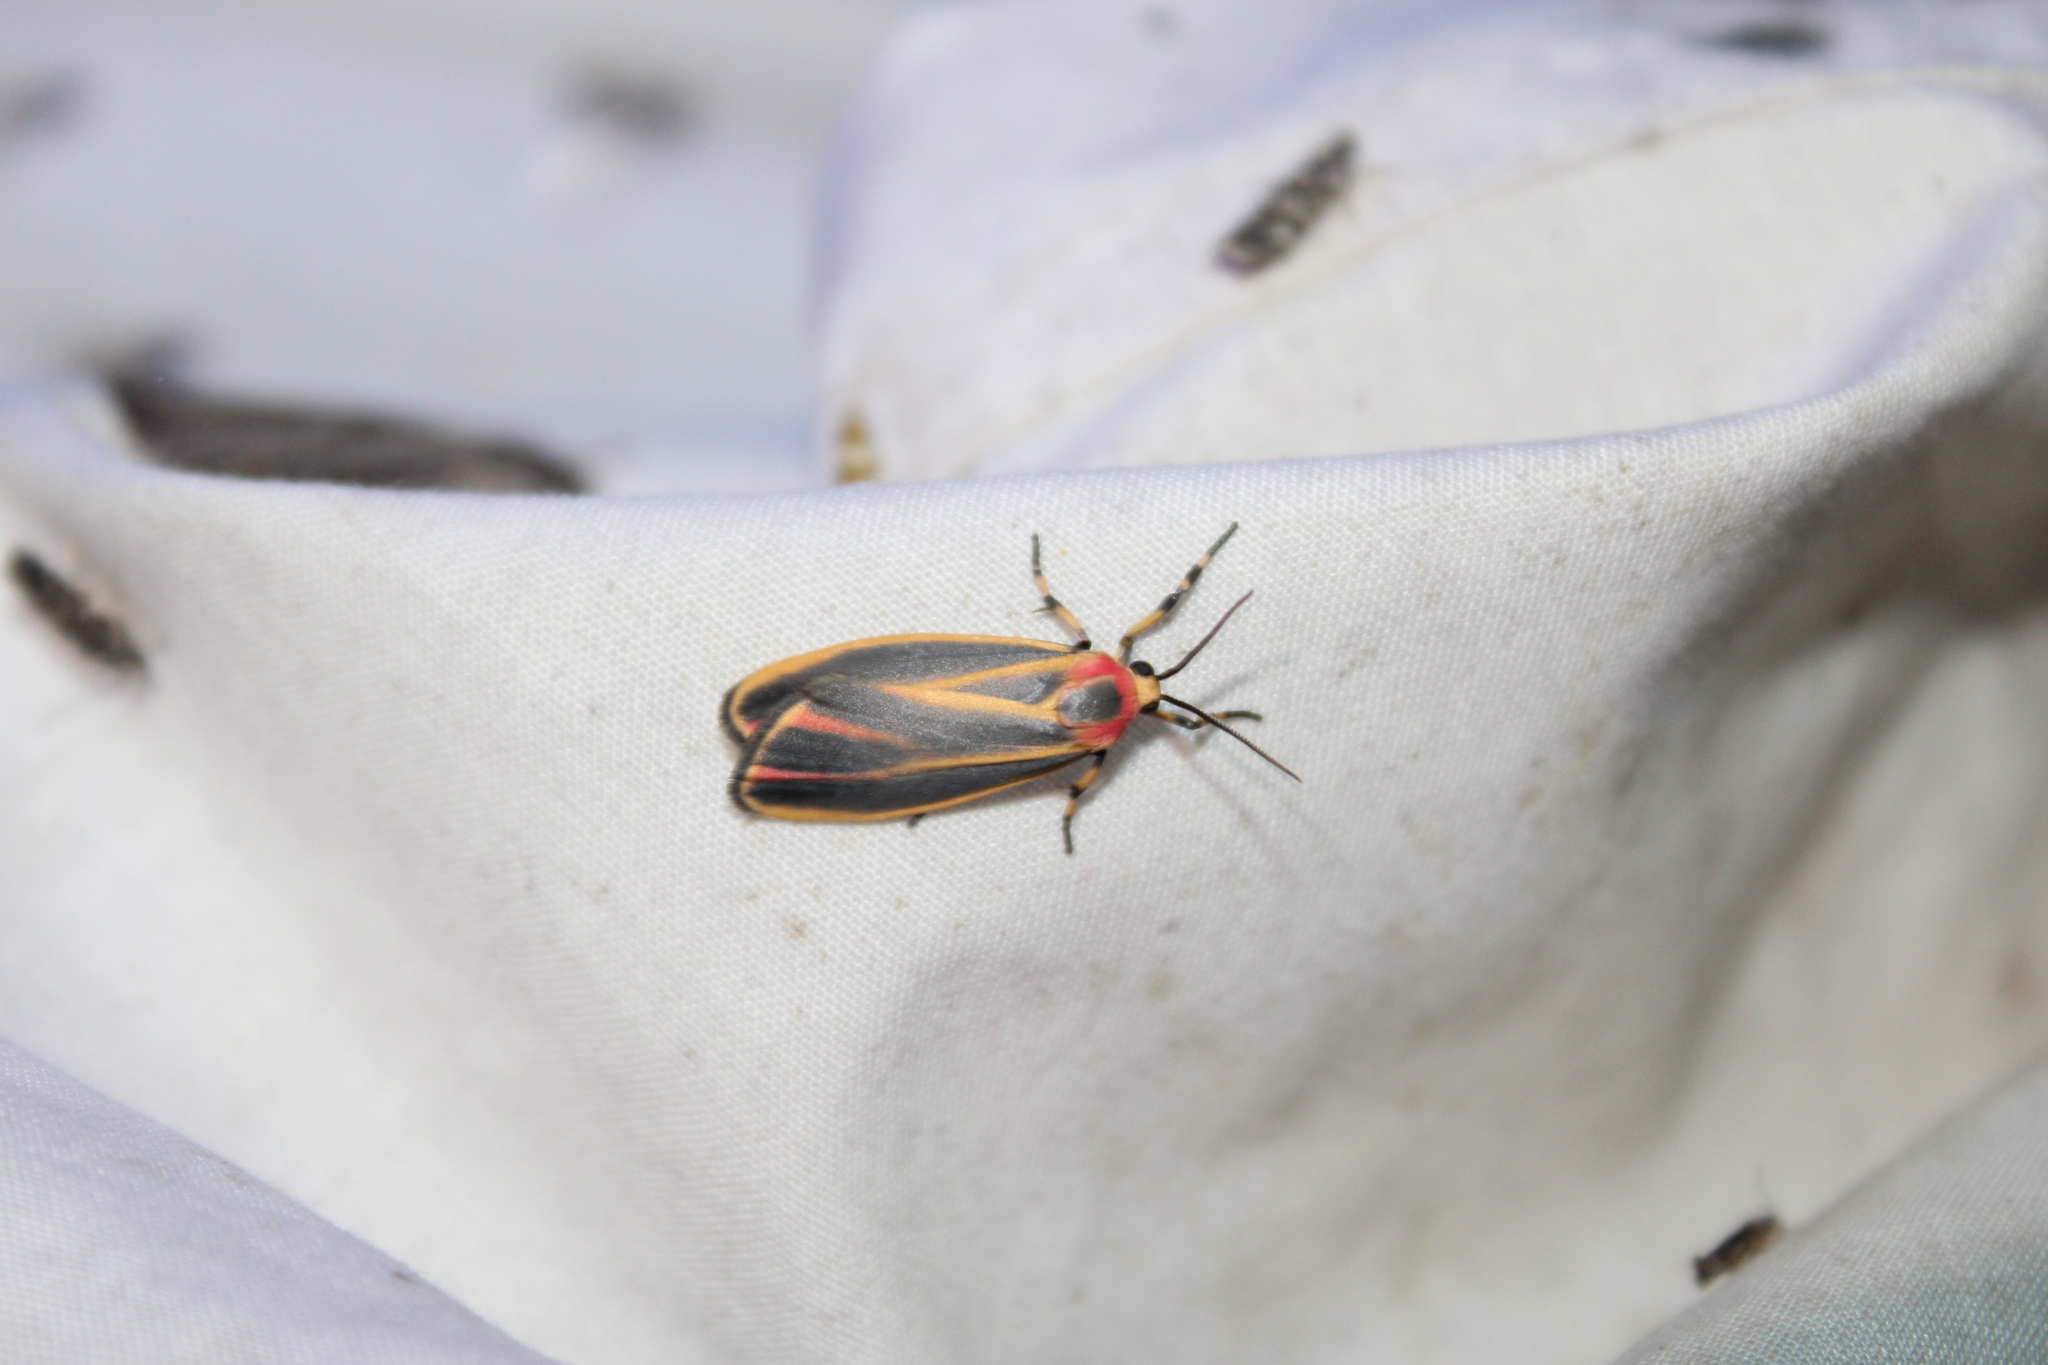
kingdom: Animalia
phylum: Arthropoda
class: Insecta
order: Lepidoptera
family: Erebidae
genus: Hypoprepia
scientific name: Hypoprepia fucosa
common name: Painted lichen moth
